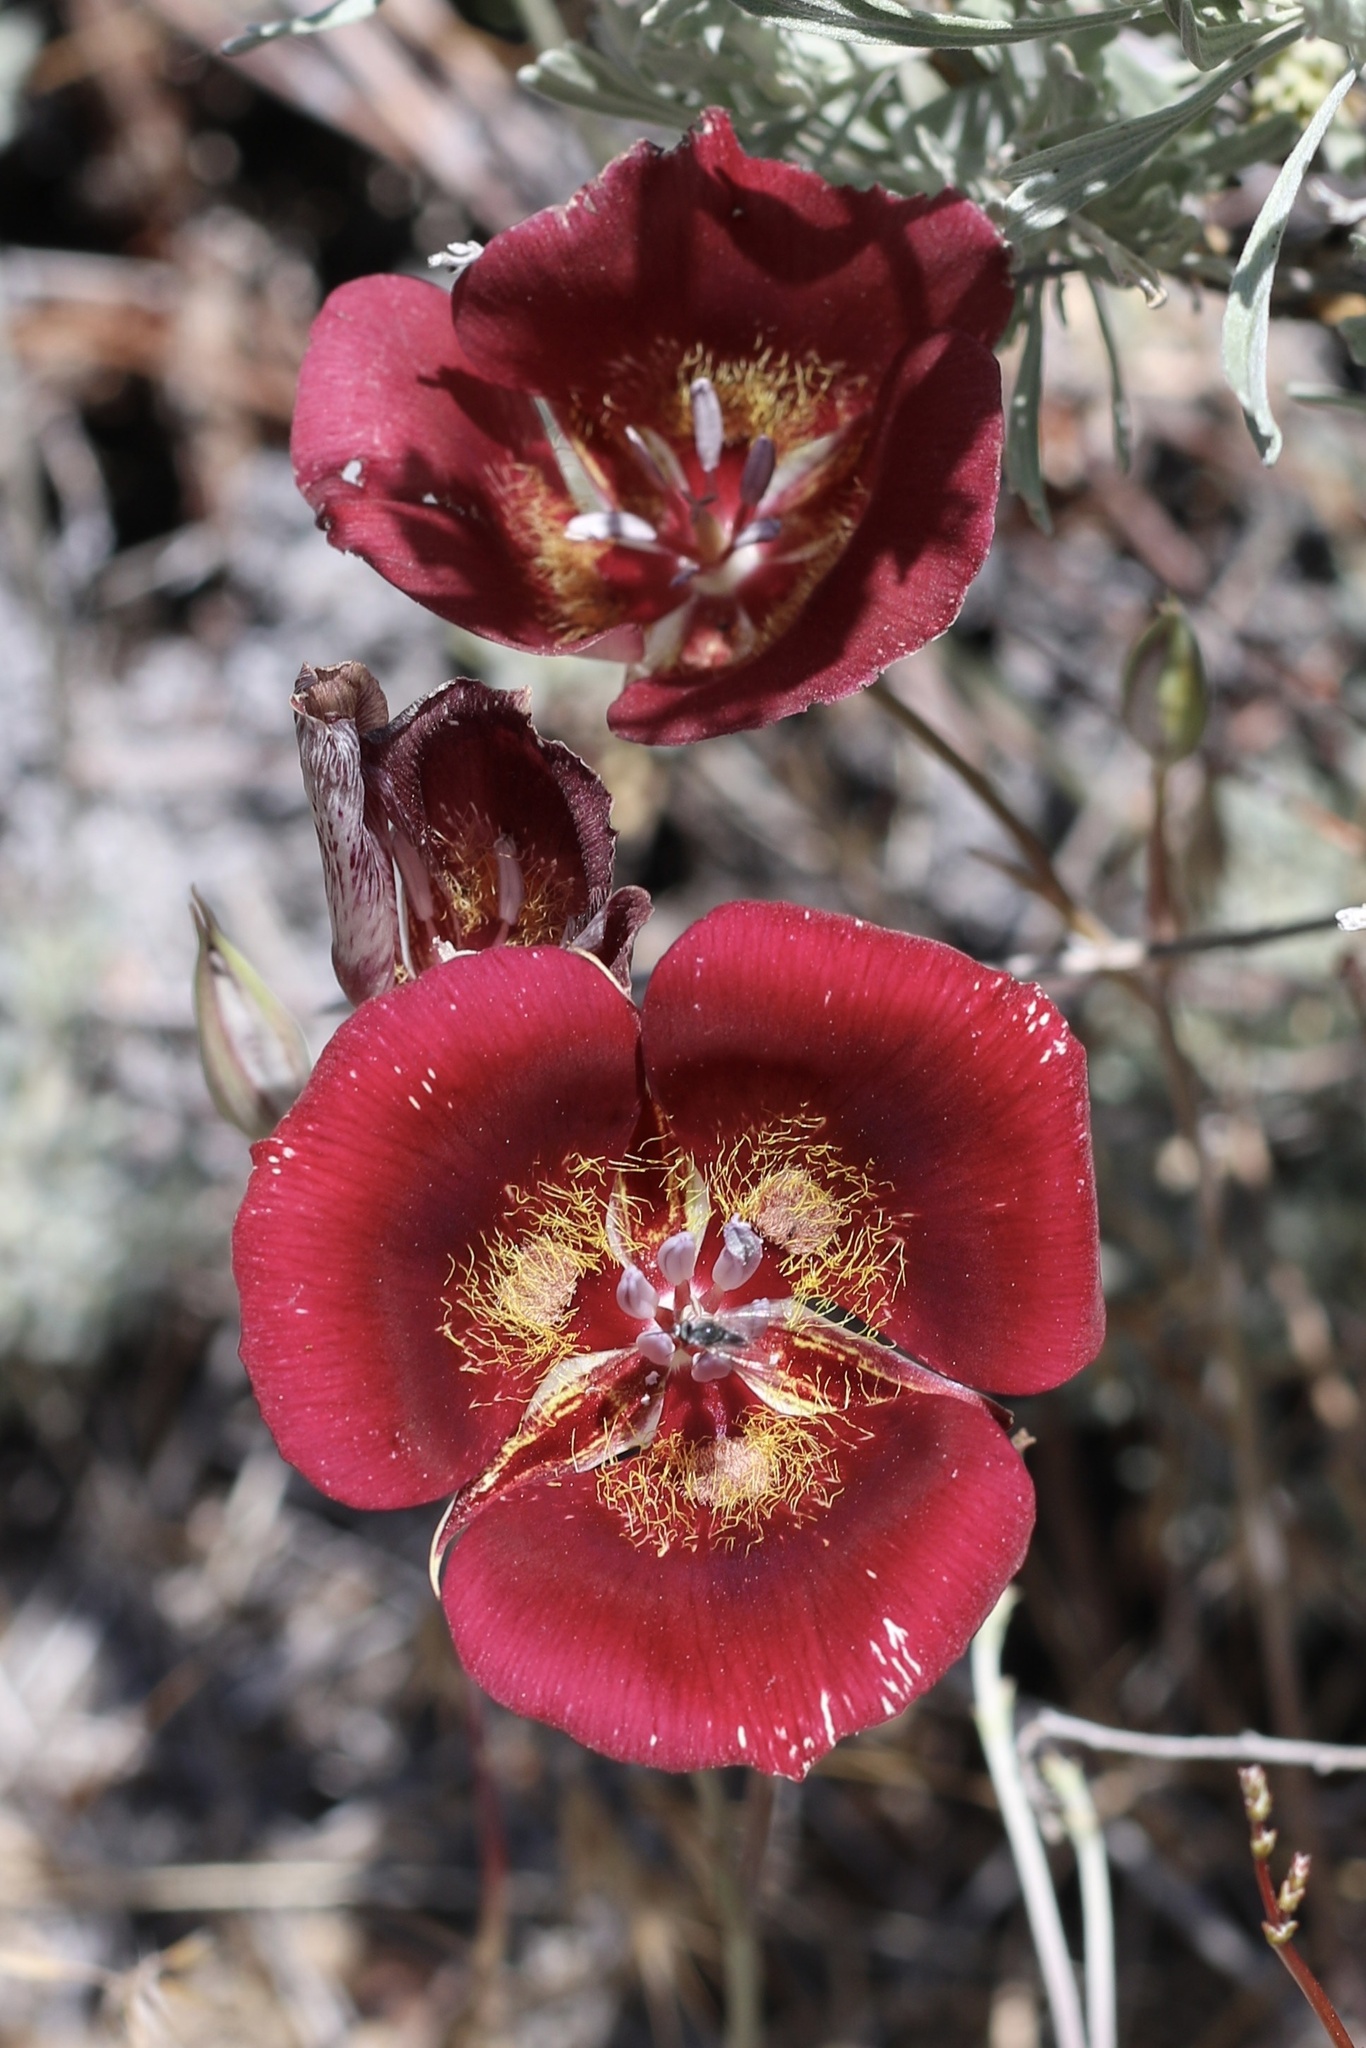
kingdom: Plantae
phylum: Tracheophyta
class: Liliopsida
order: Liliales
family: Liliaceae
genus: Calochortus
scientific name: Calochortus venustus
